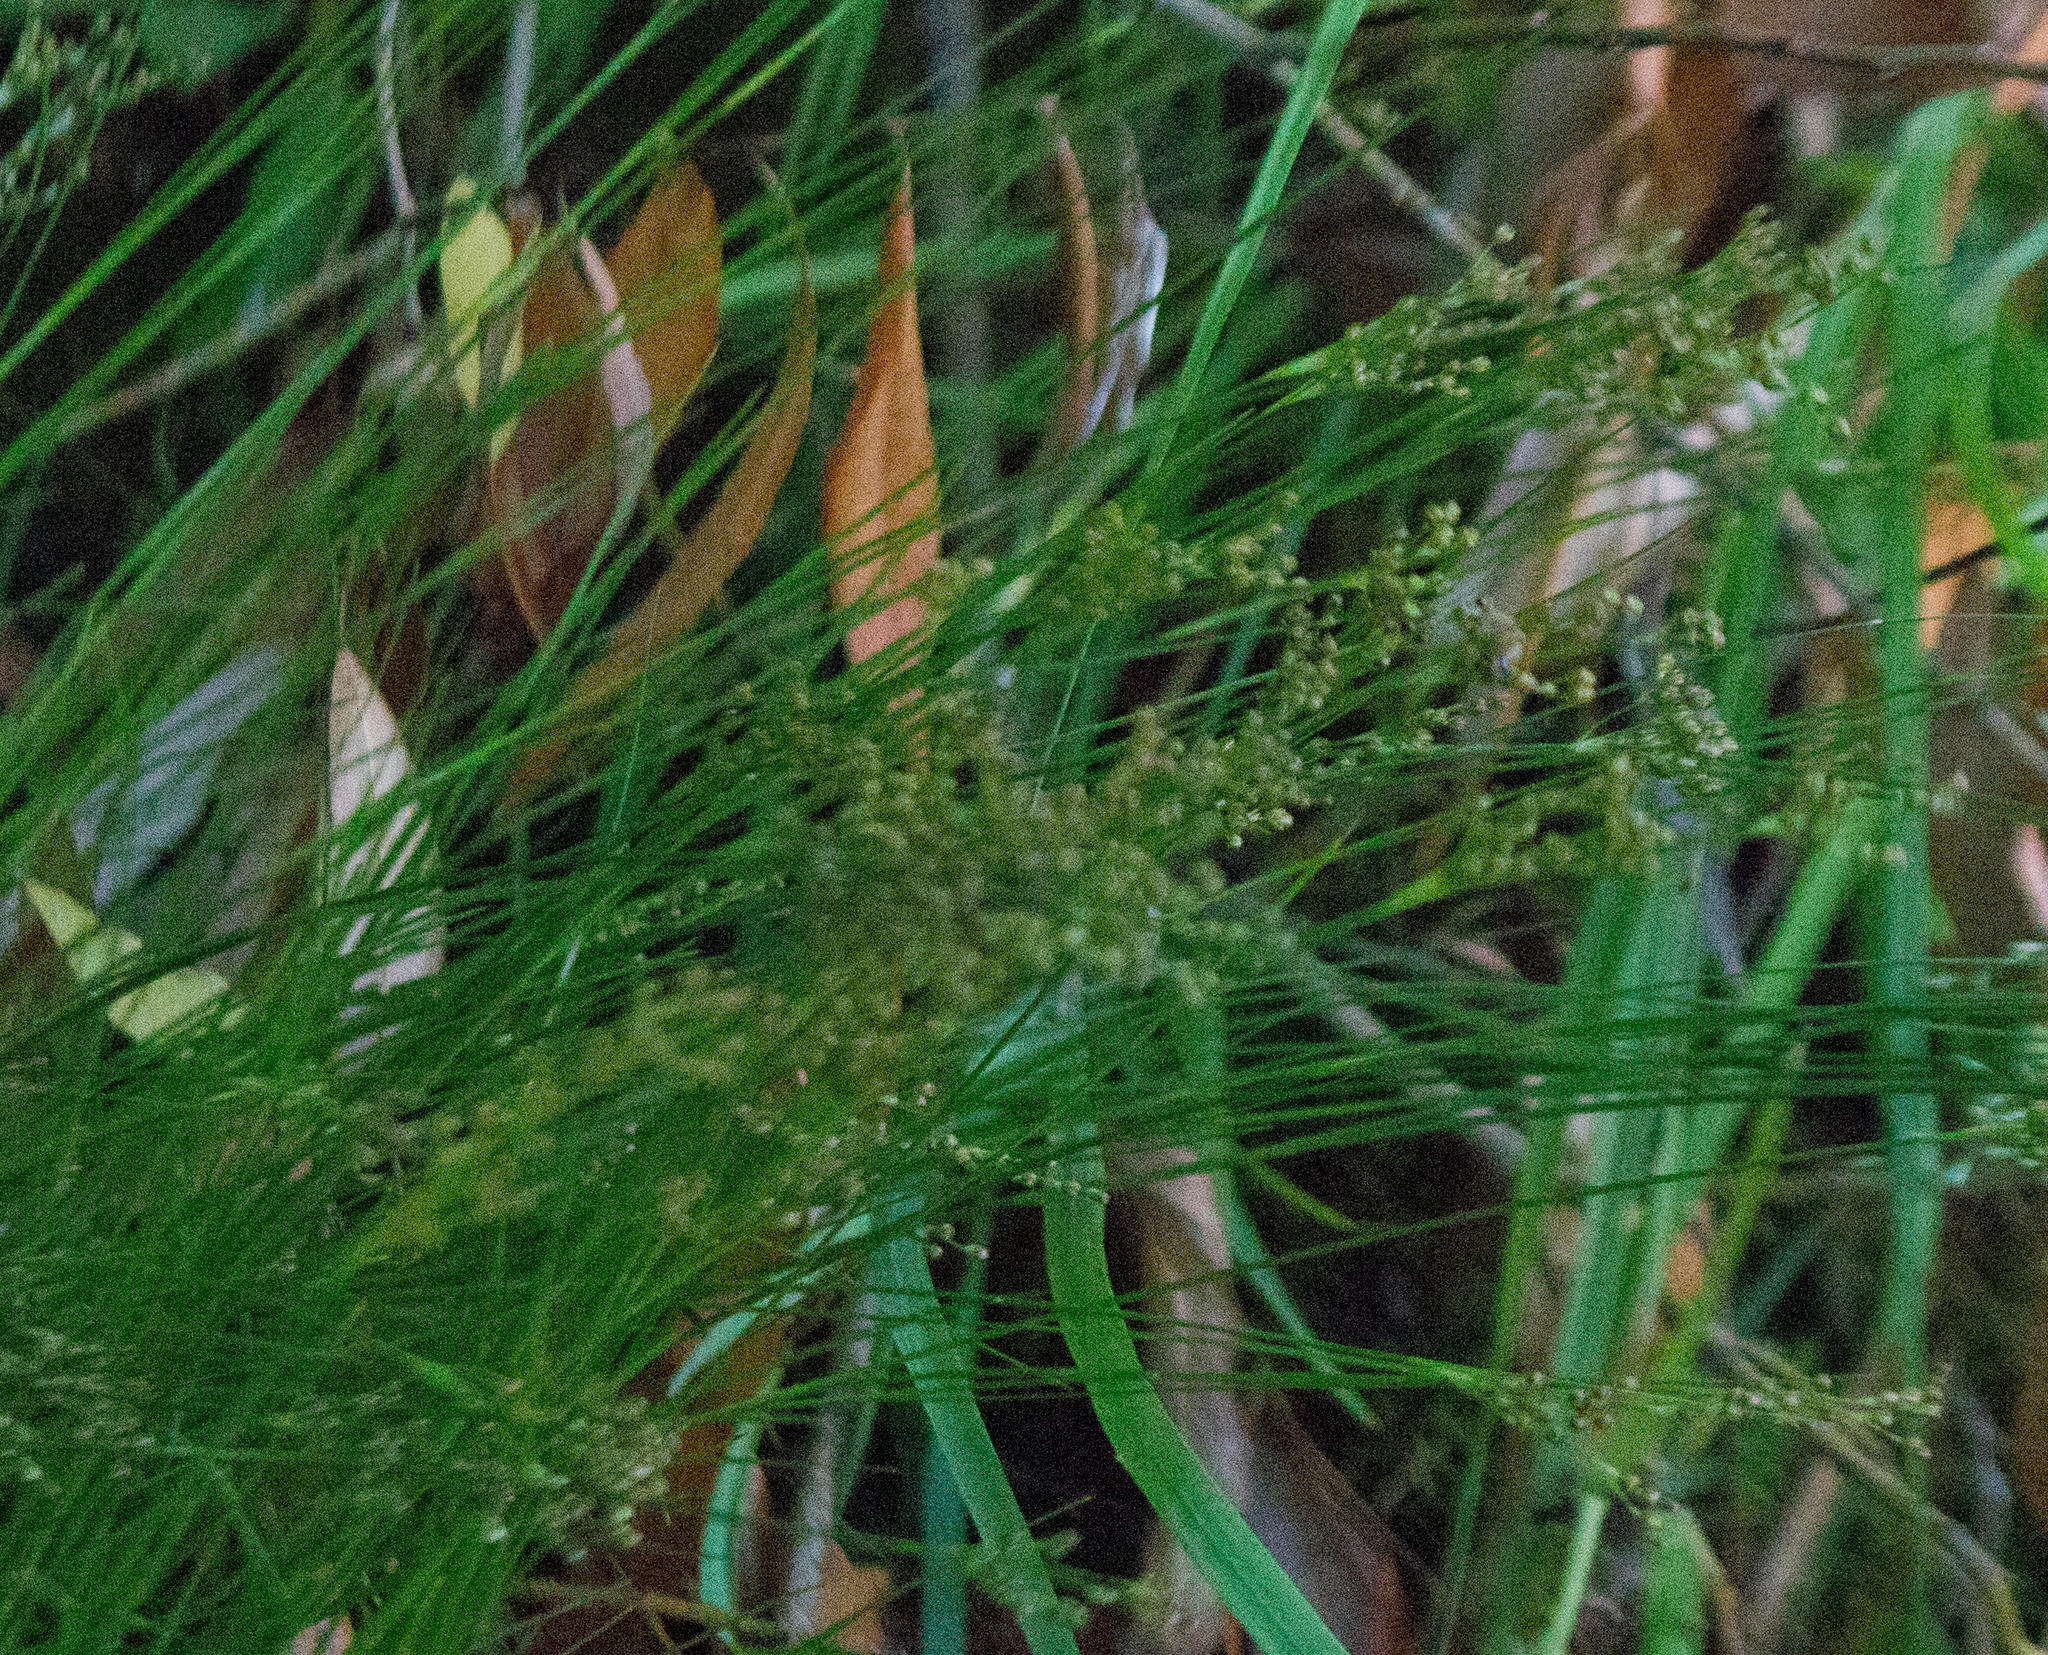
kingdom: Plantae
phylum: Tracheophyta
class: Liliopsida
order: Poales
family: Juncaceae
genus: Juncus
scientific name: Juncus compressus
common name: Round-fruited rush
